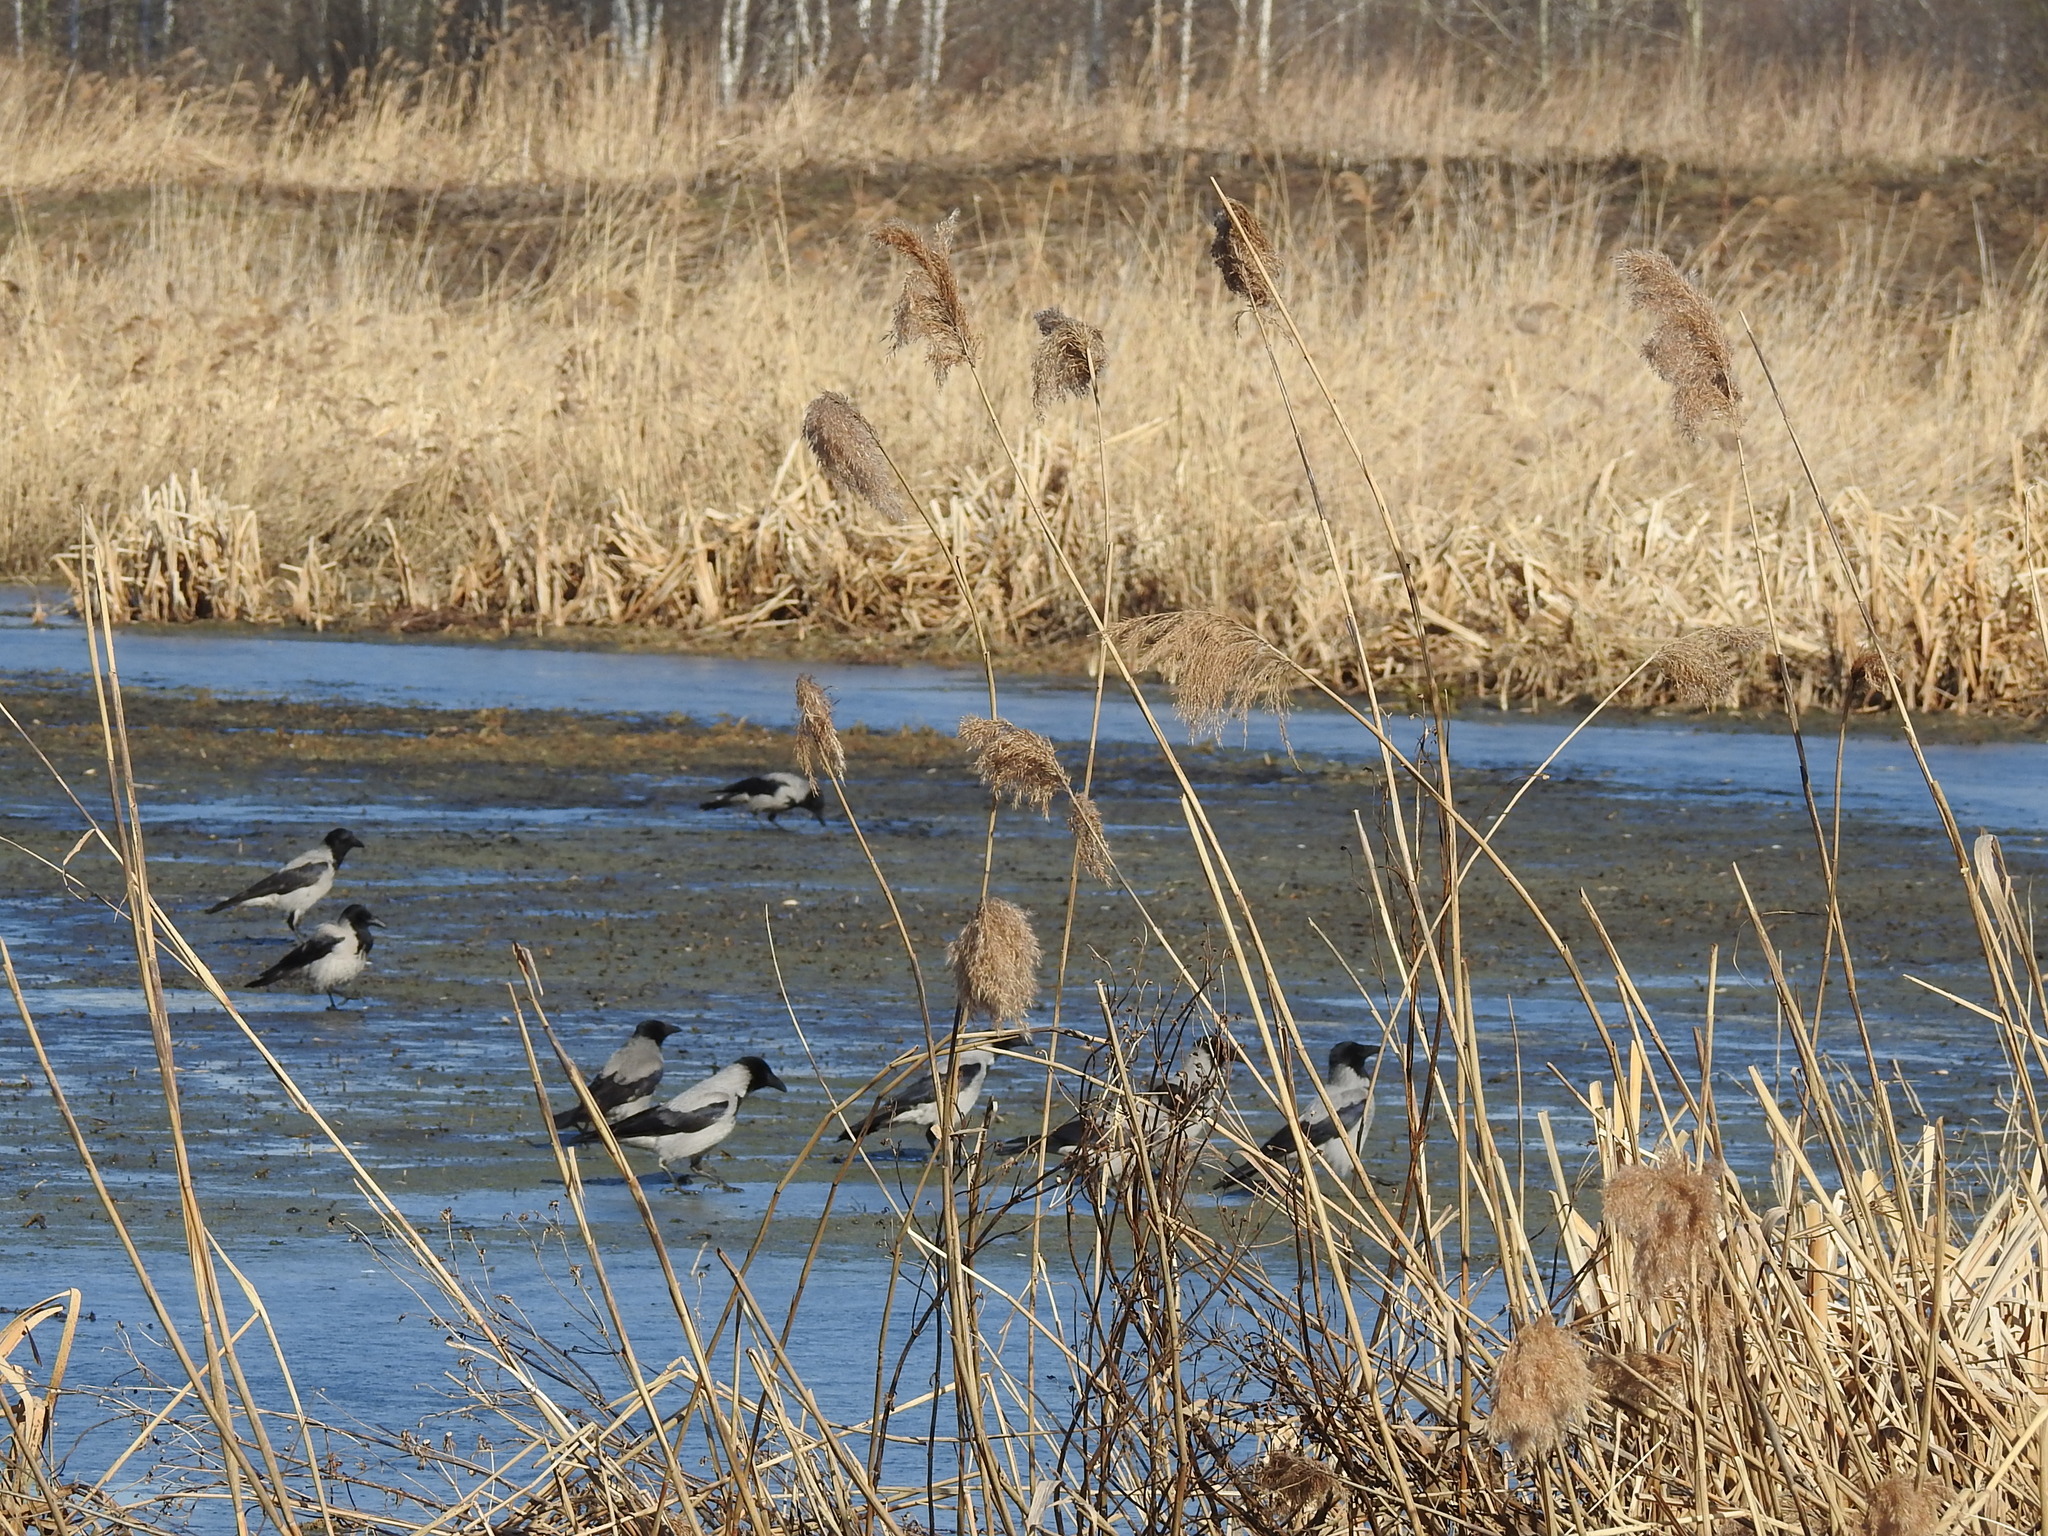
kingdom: Animalia
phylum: Chordata
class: Aves
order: Passeriformes
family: Corvidae
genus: Corvus
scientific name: Corvus cornix
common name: Hooded crow
